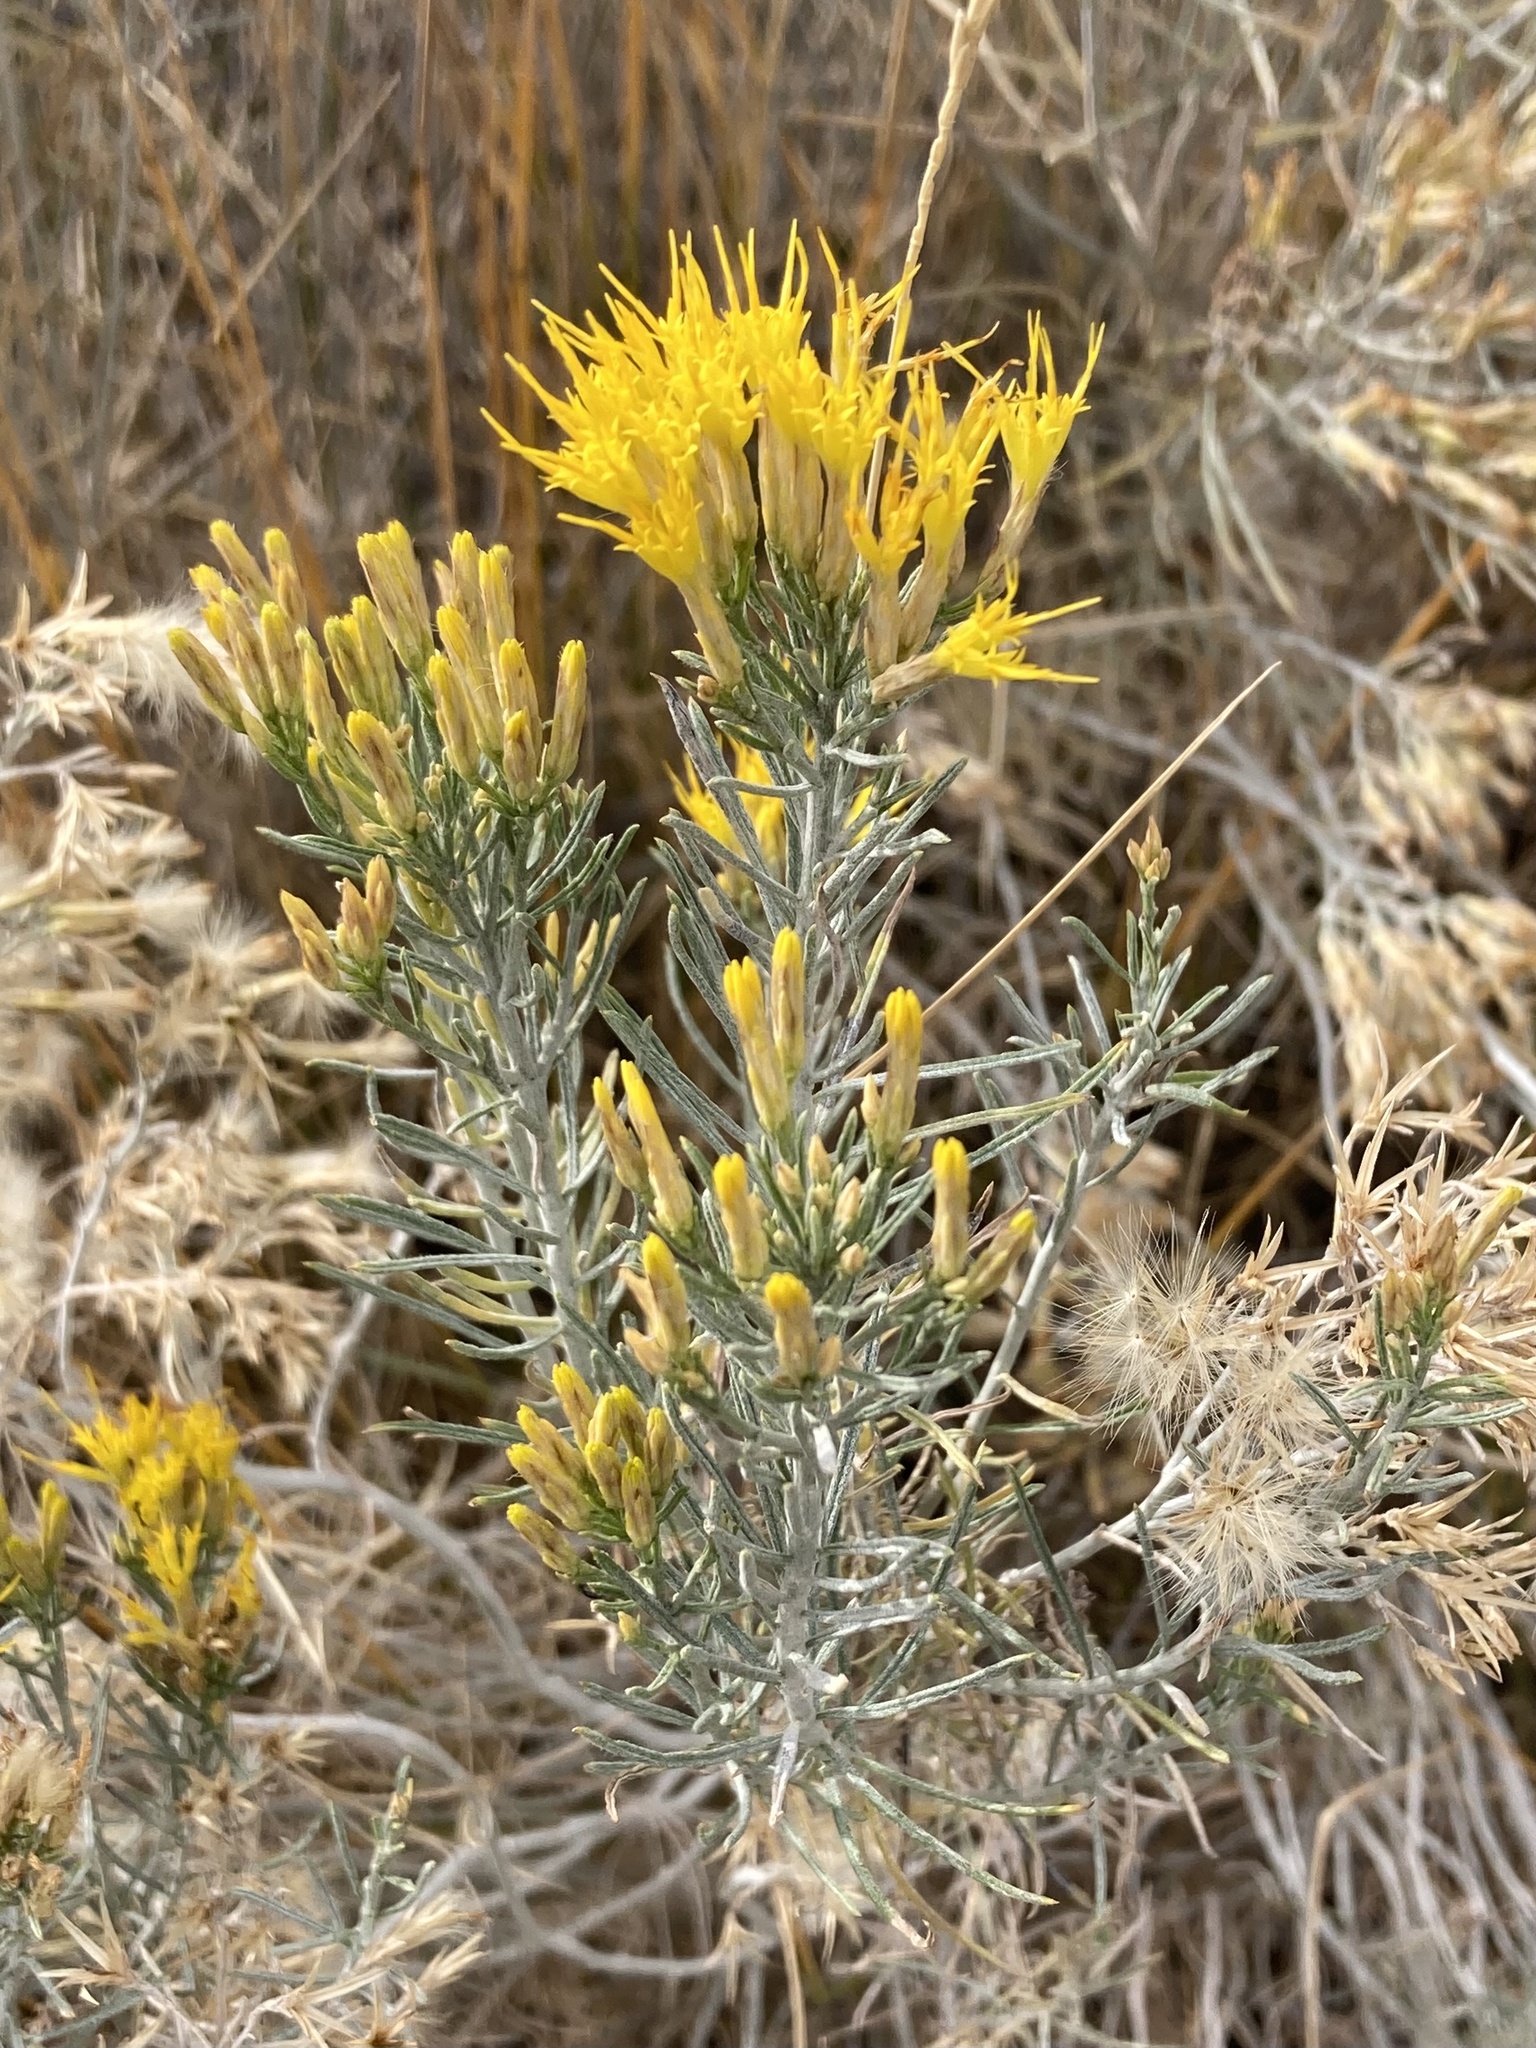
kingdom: Plantae
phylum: Tracheophyta
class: Magnoliopsida
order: Asterales
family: Asteraceae
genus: Ericameria
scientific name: Ericameria nauseosa
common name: Rubber rabbitbrush
